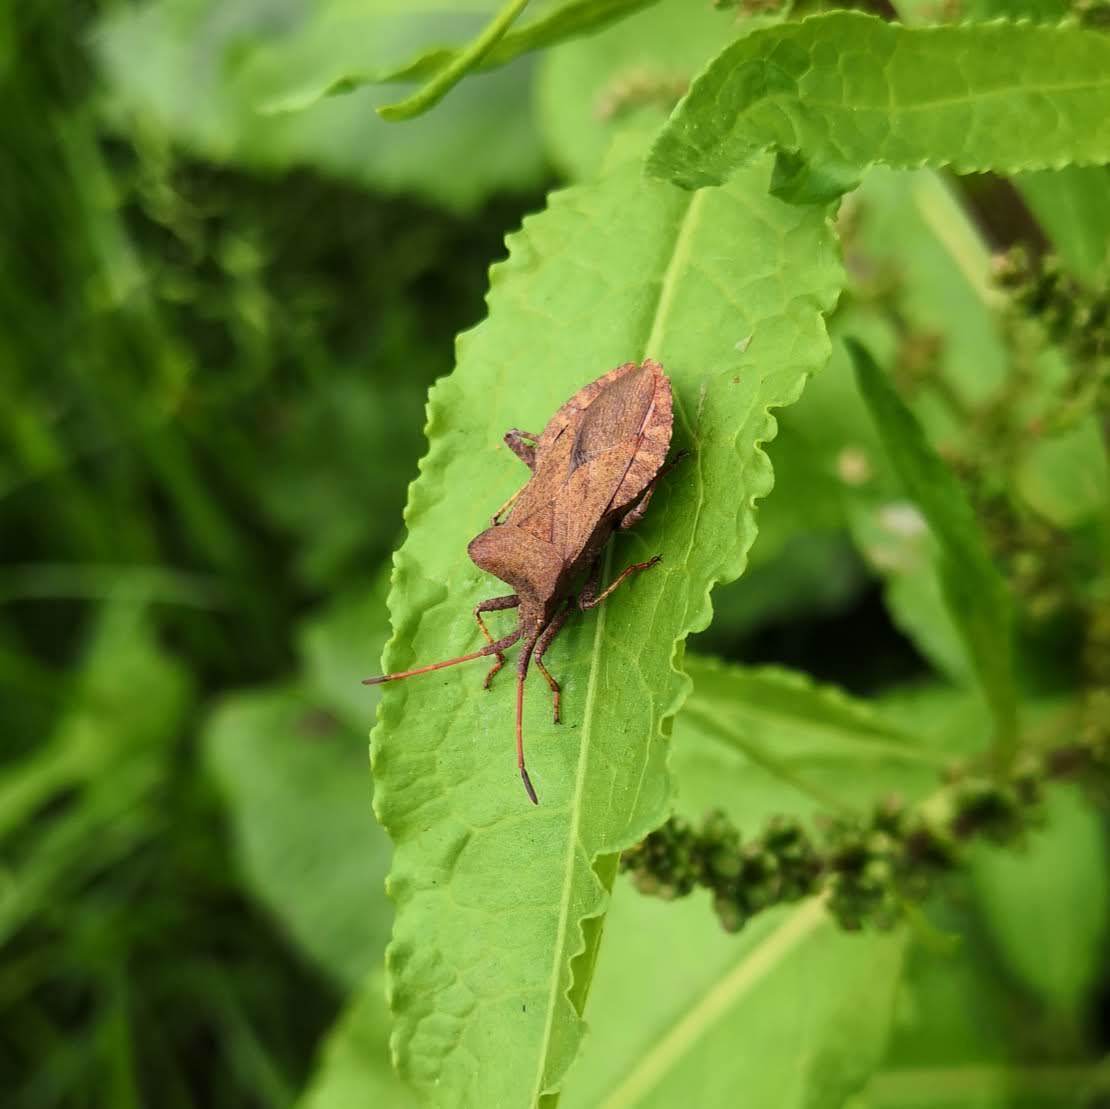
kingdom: Animalia
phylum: Arthropoda
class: Insecta
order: Hemiptera
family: Coreidae
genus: Coreus
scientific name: Coreus marginatus
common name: Dock bug
